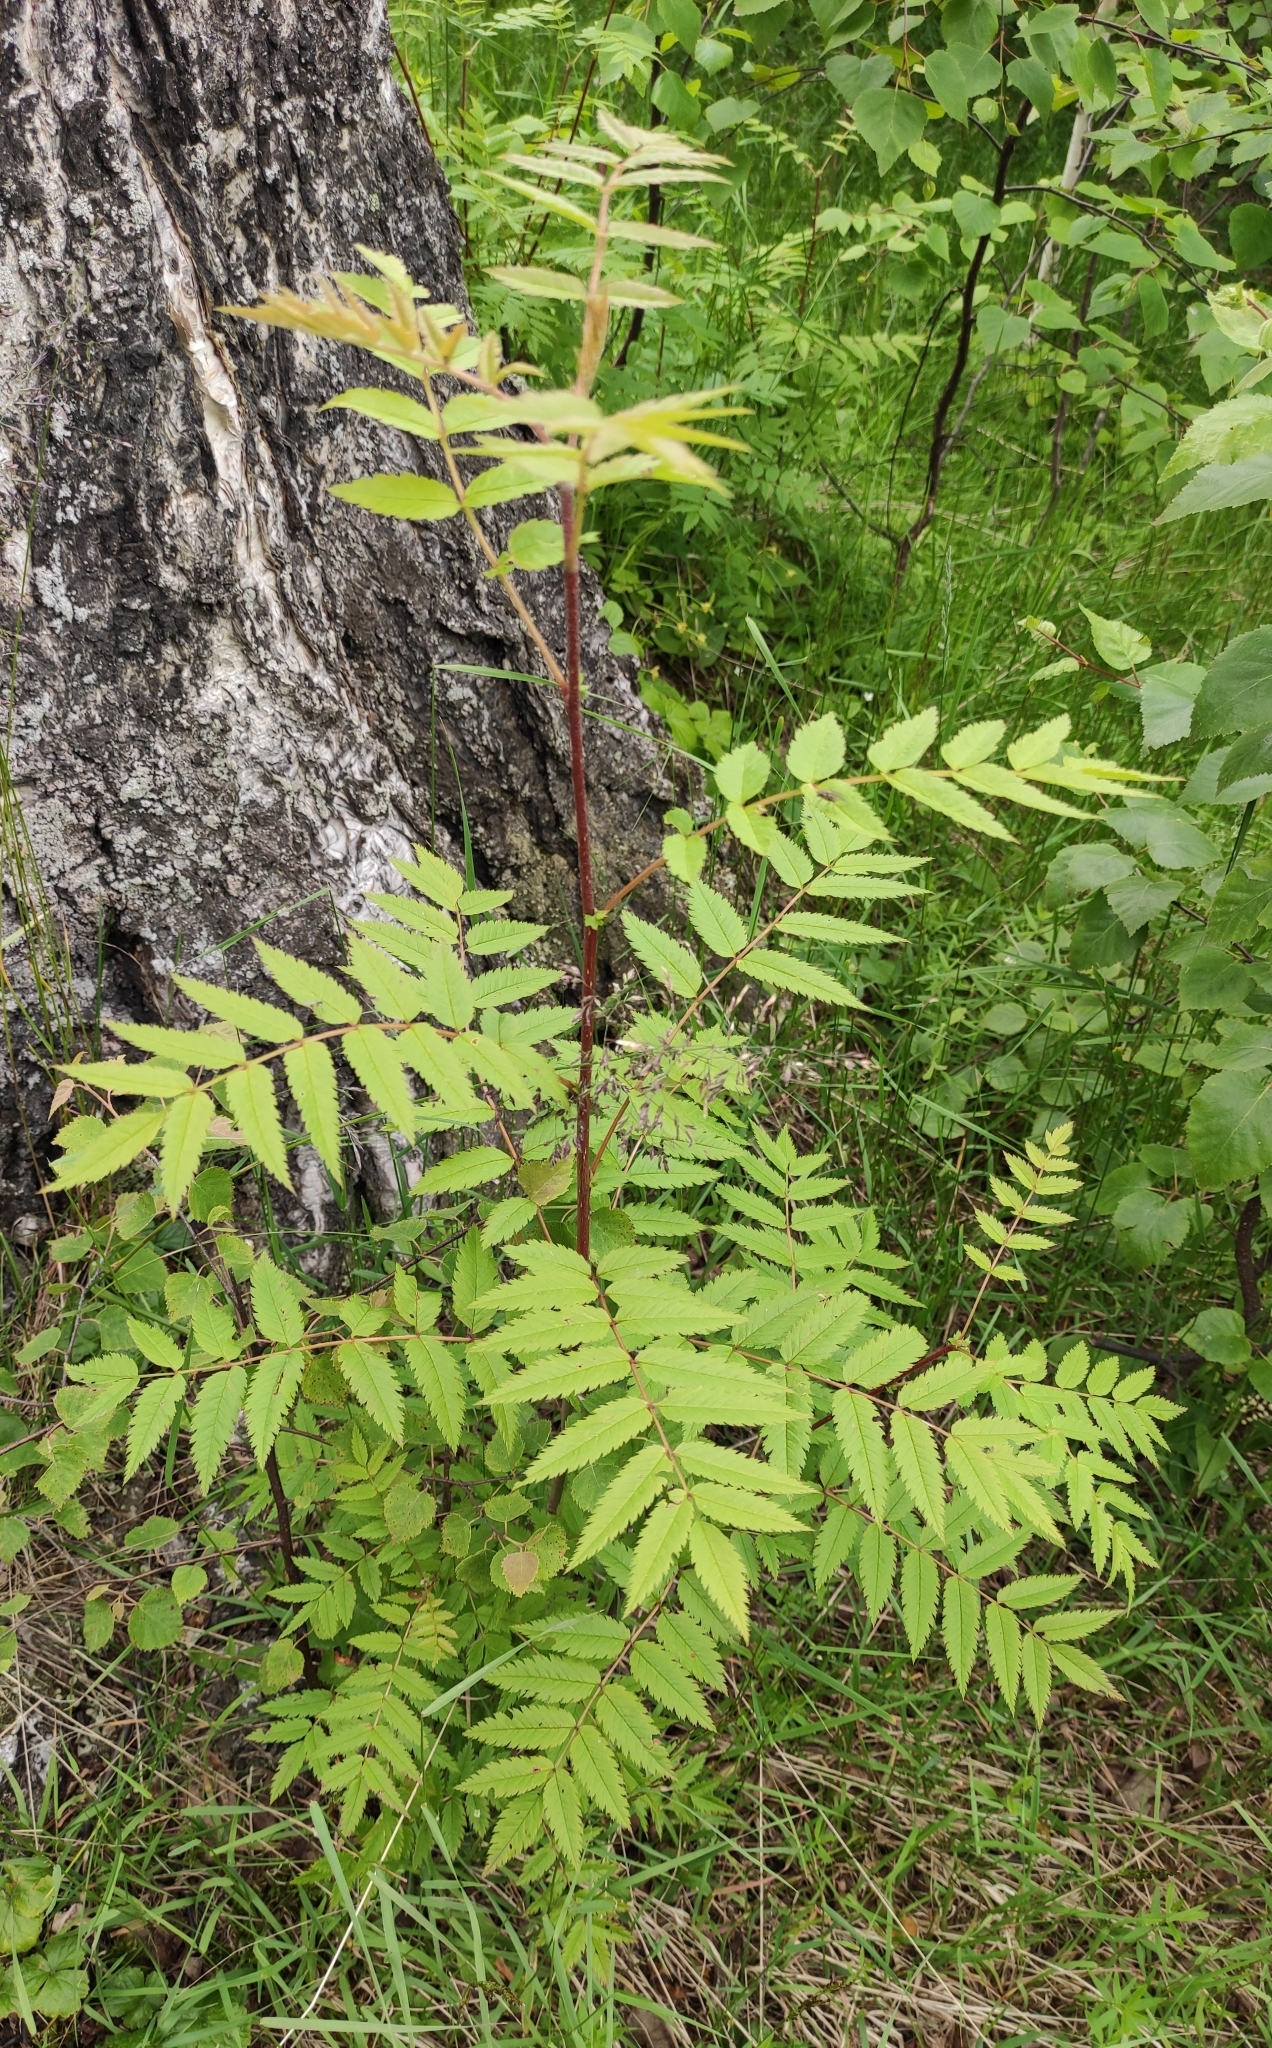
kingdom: Plantae
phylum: Tracheophyta
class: Magnoliopsida
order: Rosales
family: Rosaceae
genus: Sorbus
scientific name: Sorbus aucuparia
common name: Rowan
